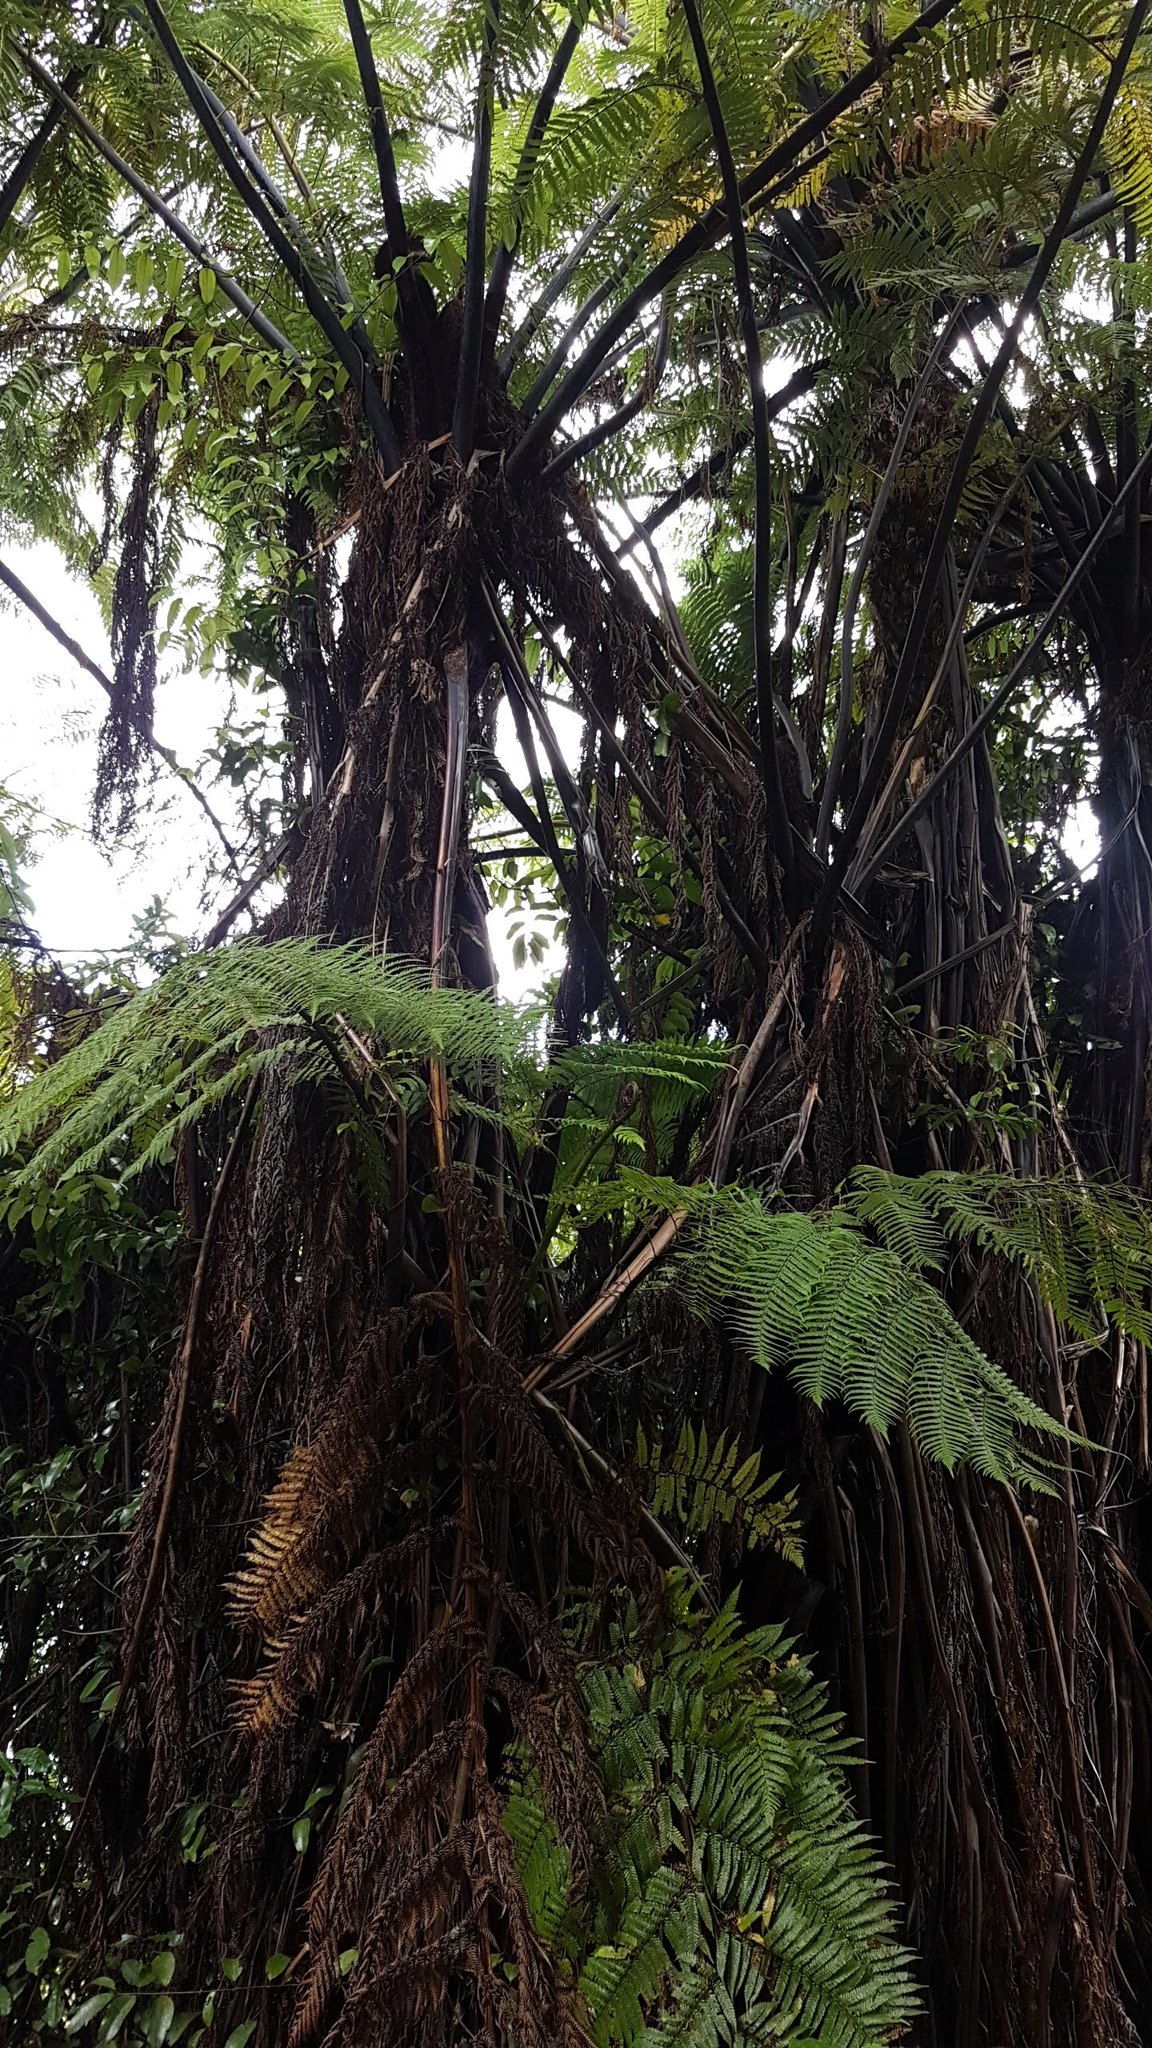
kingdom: Plantae
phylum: Tracheophyta
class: Polypodiopsida
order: Cyatheales
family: Cyatheaceae
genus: Sphaeropteris
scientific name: Sphaeropteris medullaris
